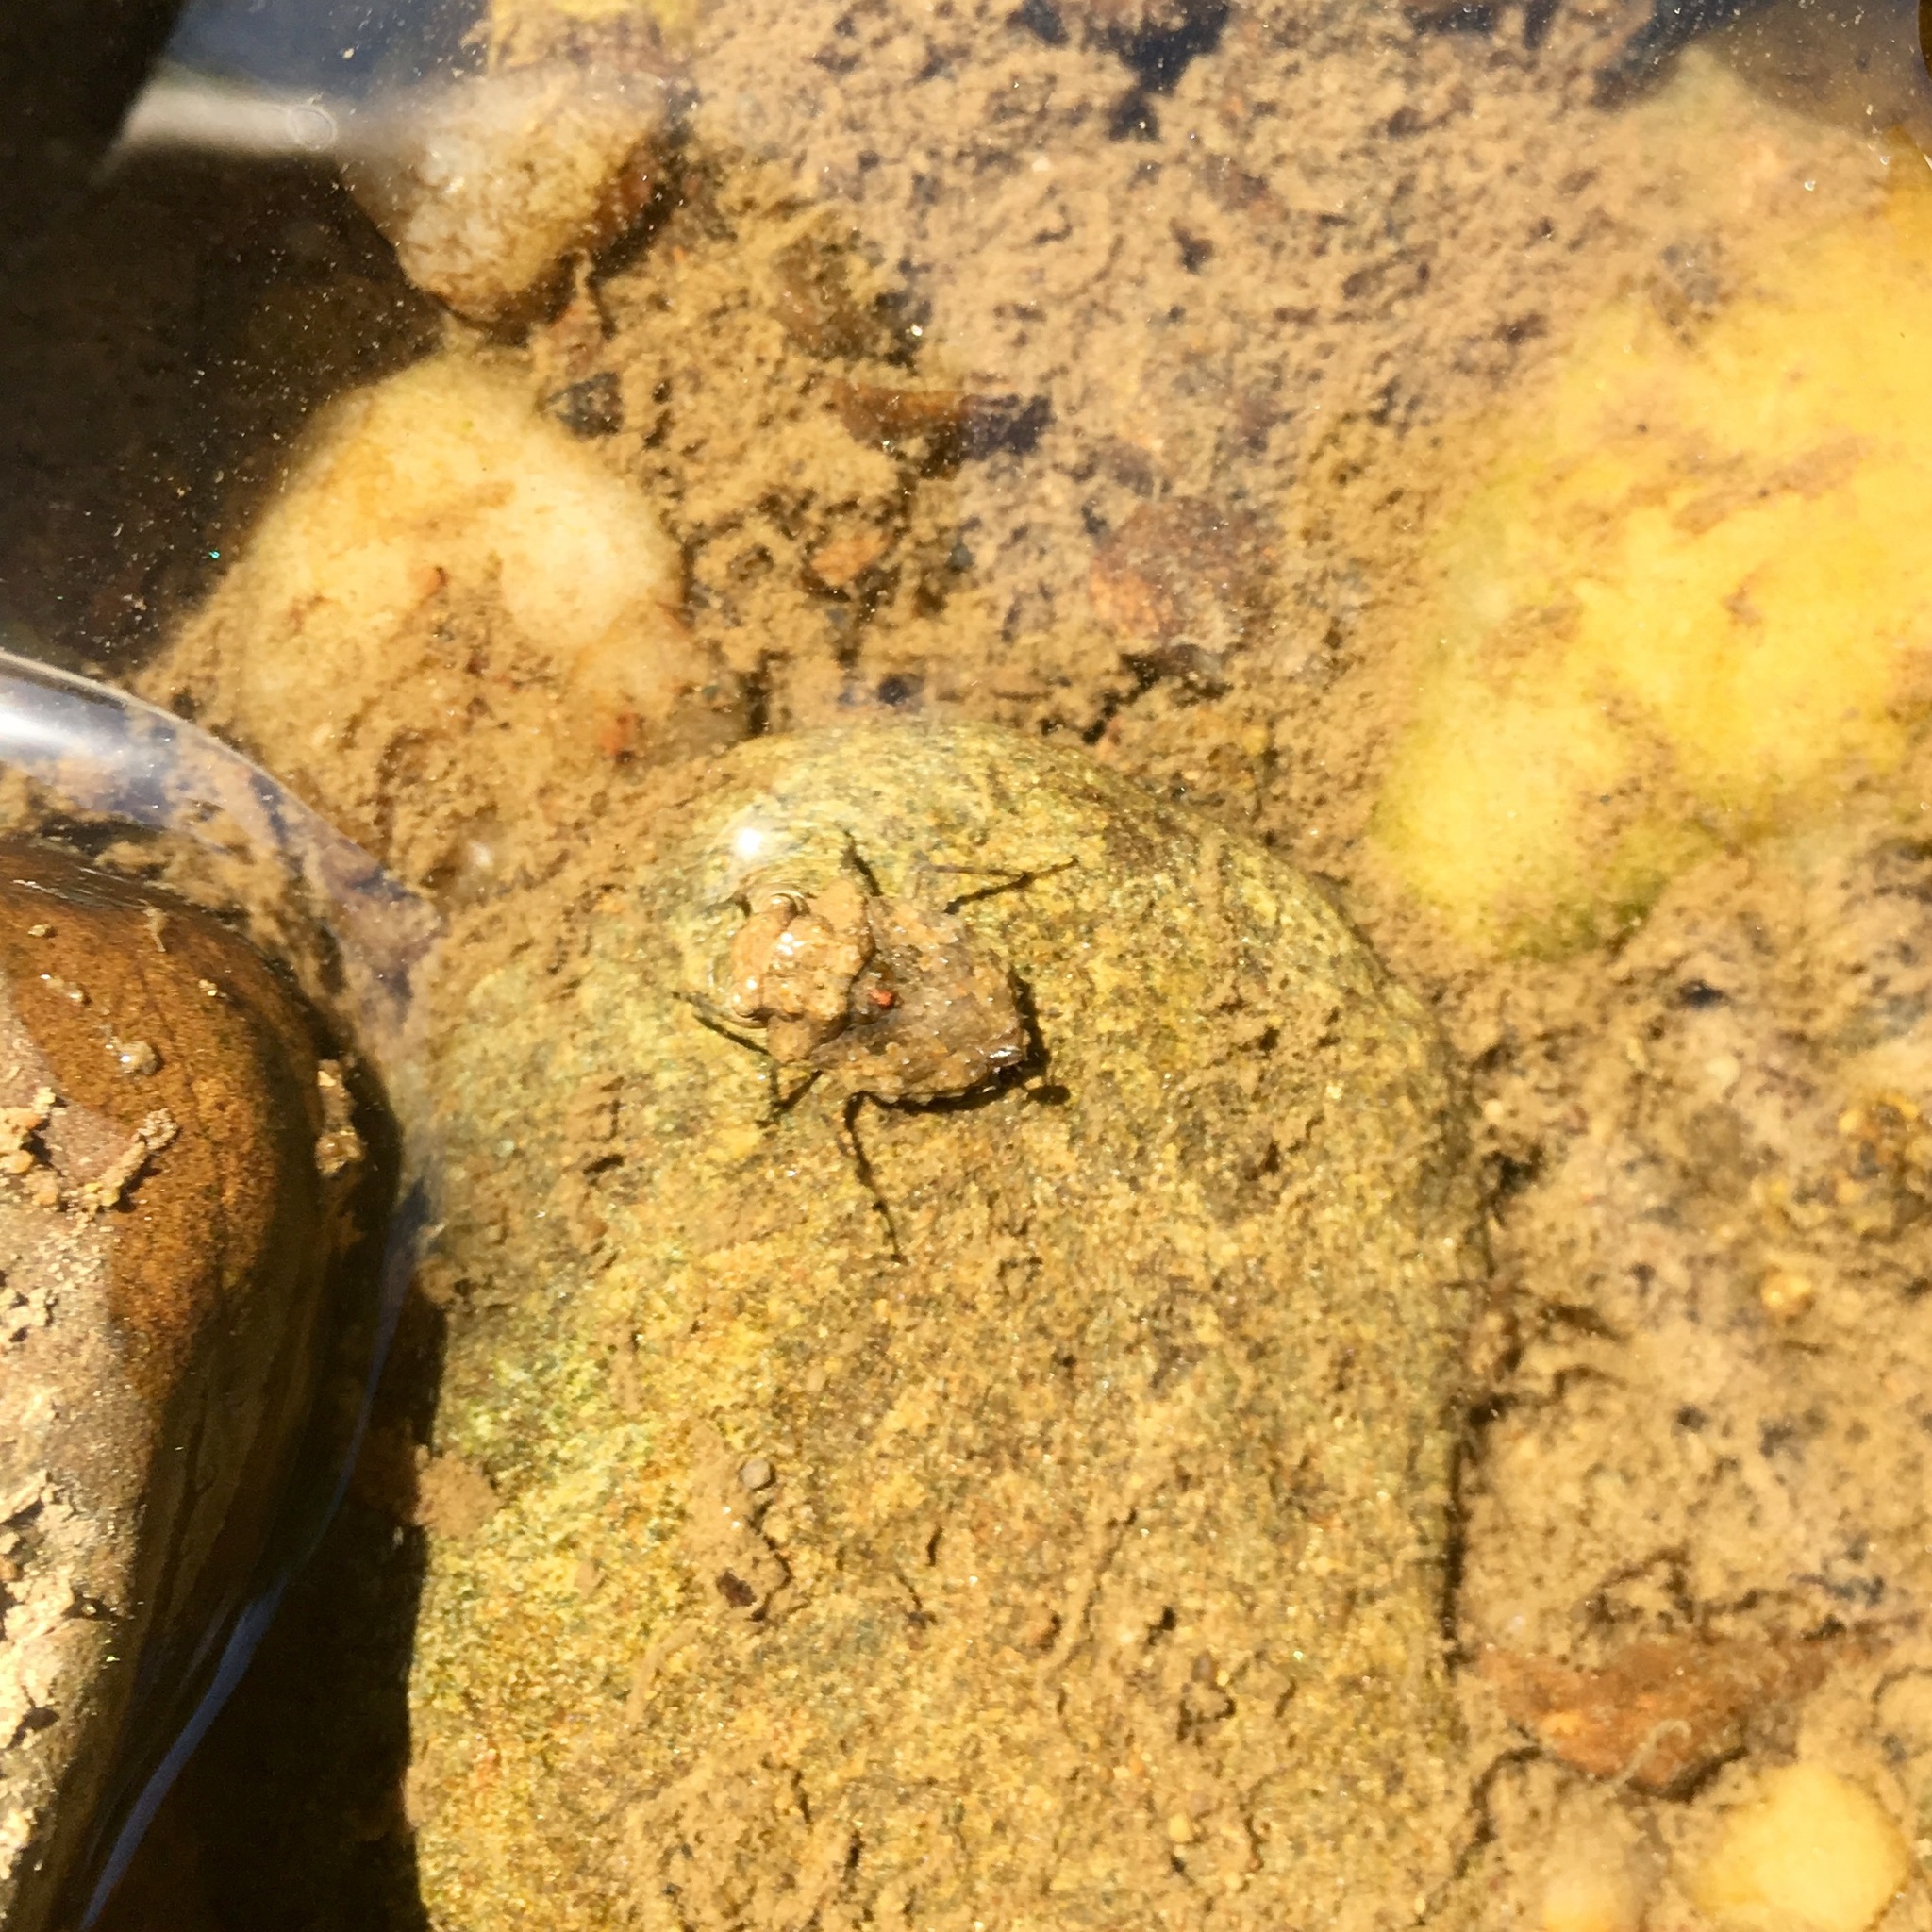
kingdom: Animalia
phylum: Arthropoda
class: Insecta
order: Hemiptera
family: Gelastocoridae
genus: Gelastocoris
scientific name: Gelastocoris oculatus
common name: Toad bug
